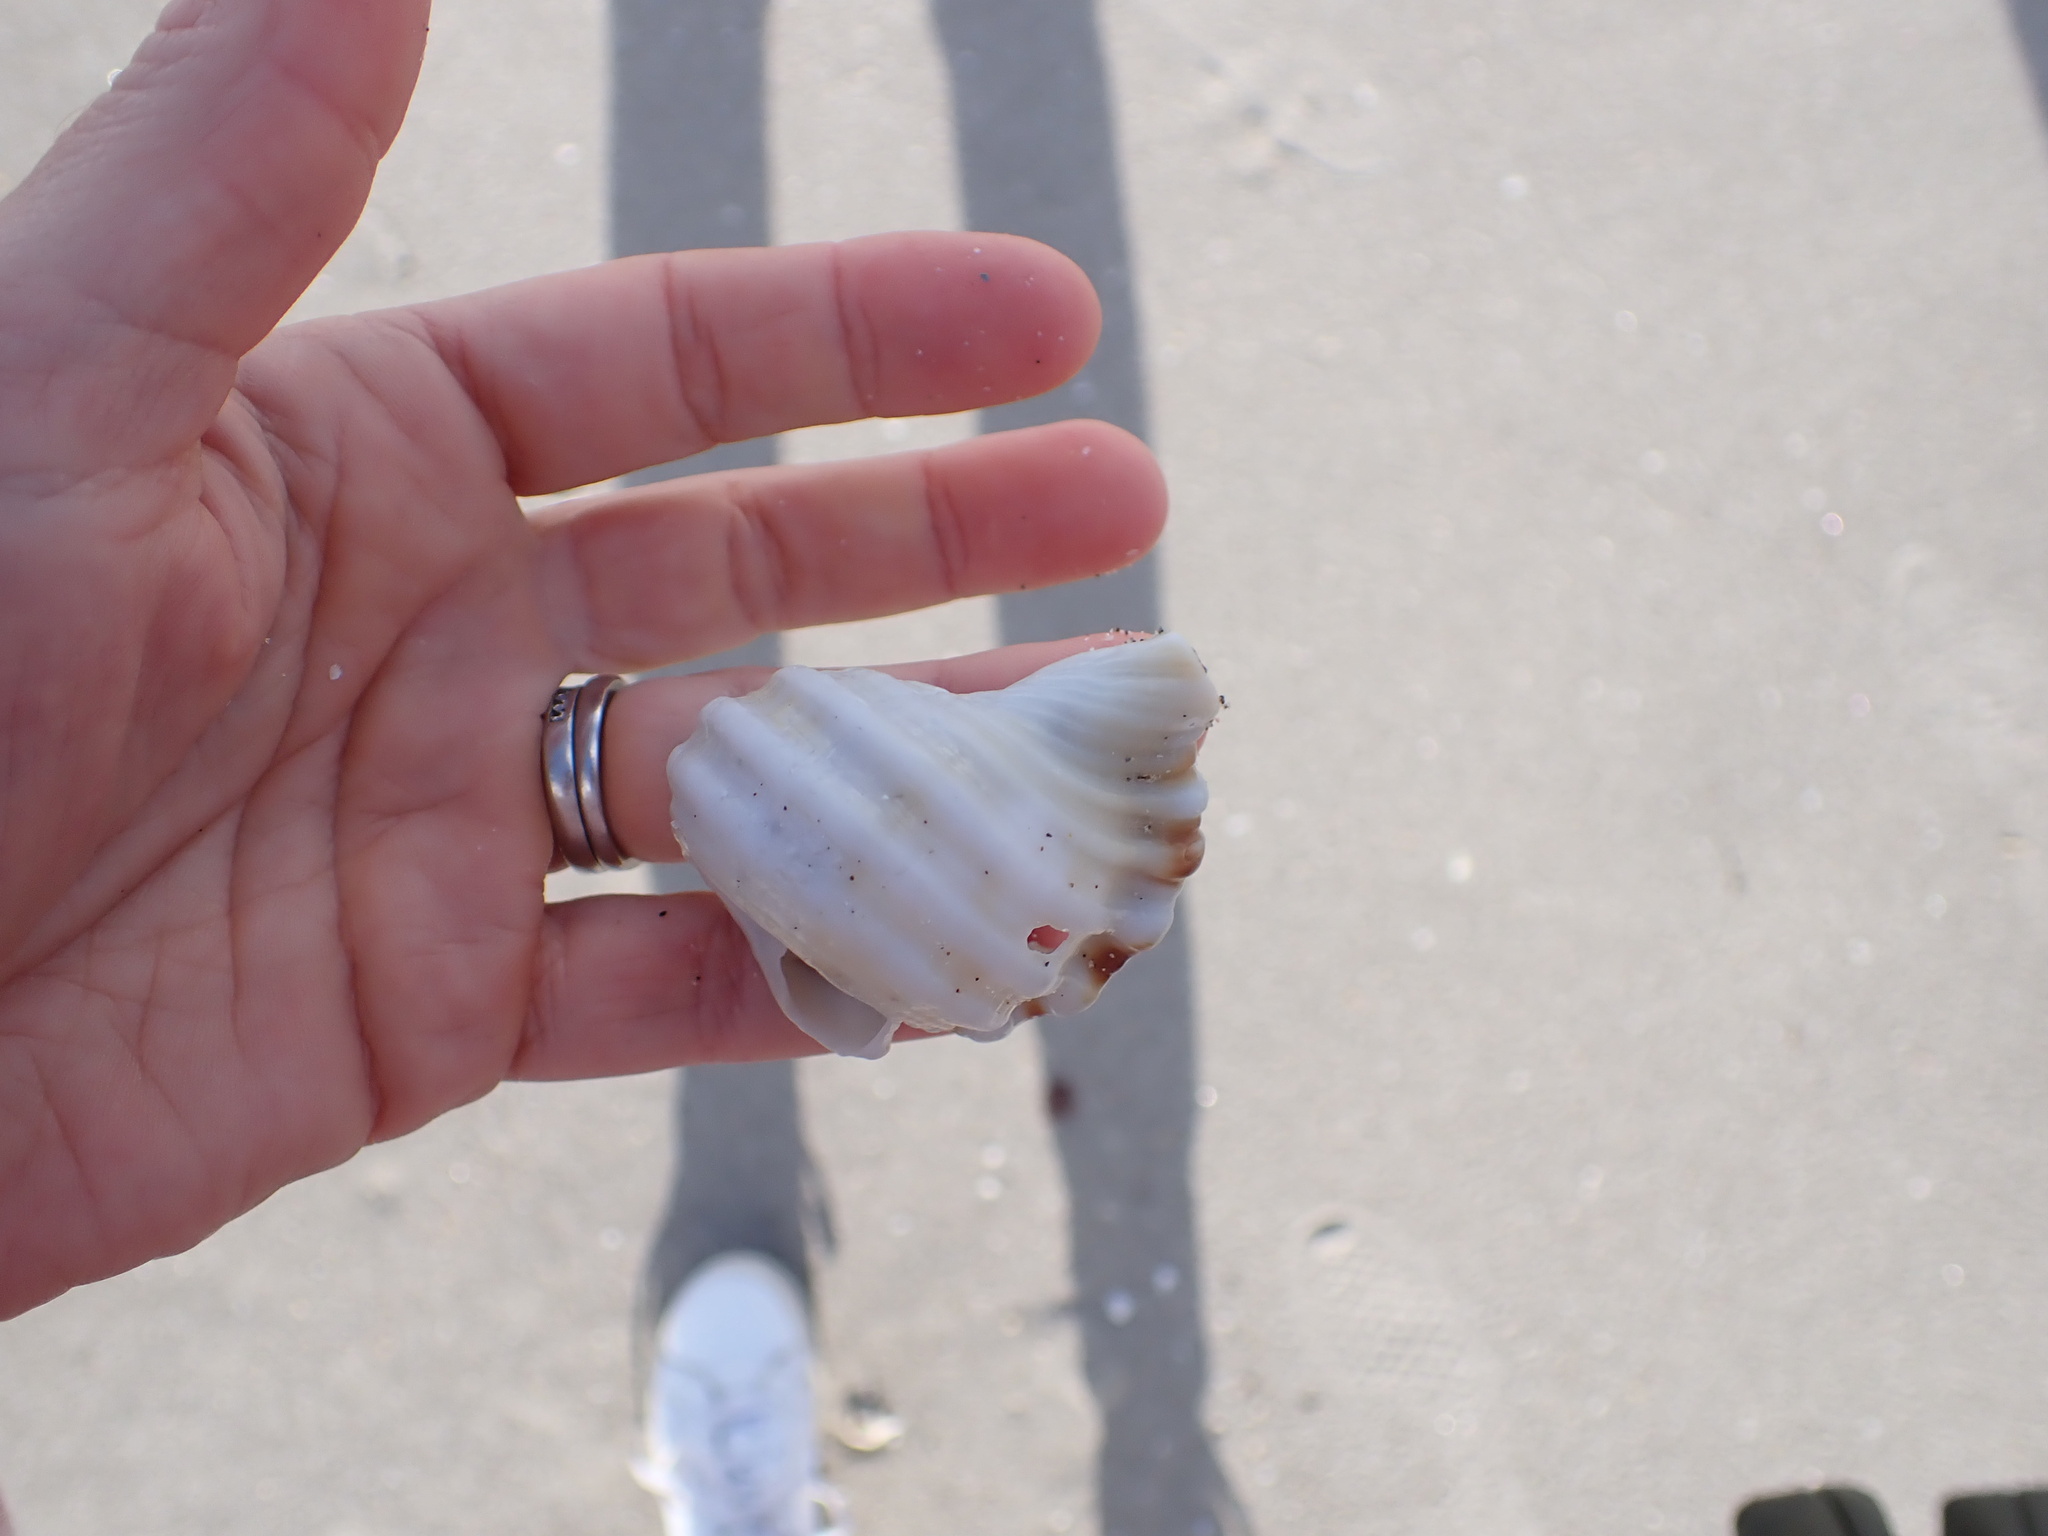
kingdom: Animalia
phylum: Mollusca
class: Gastropoda
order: Littorinimorpha
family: Cymatiidae
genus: Monoplex
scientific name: Monoplex parthenopeus
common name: Giant triton
